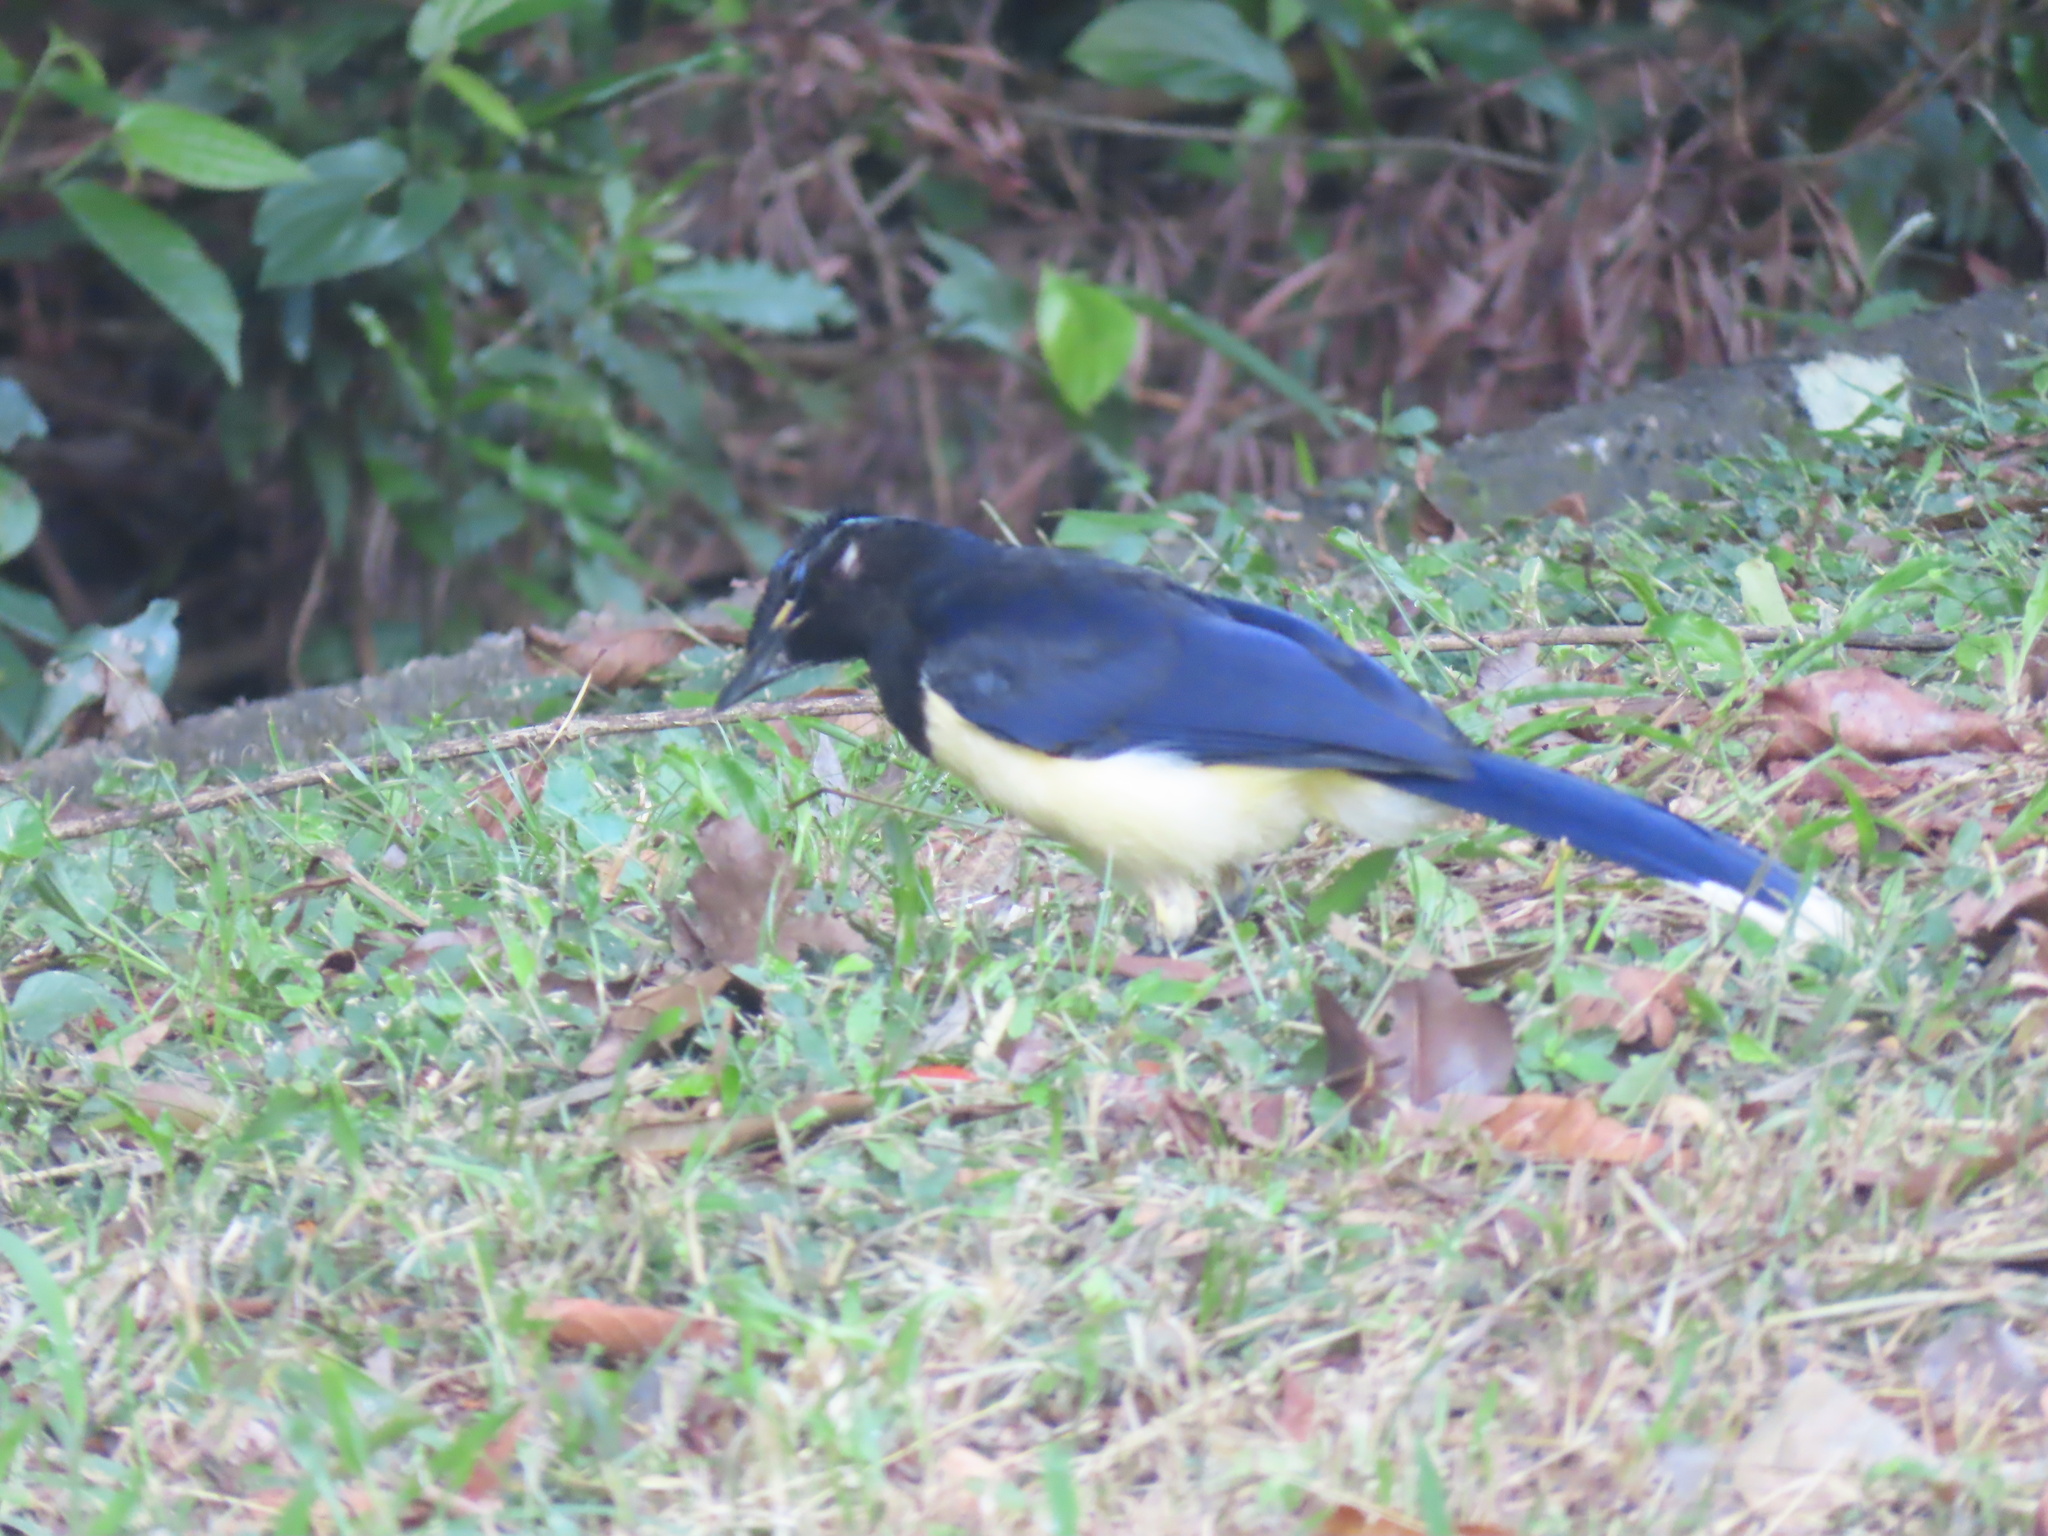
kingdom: Animalia
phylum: Chordata
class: Aves
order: Passeriformes
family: Corvidae
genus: Cyanocorax
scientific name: Cyanocorax chrysops
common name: Plush-crested jay
